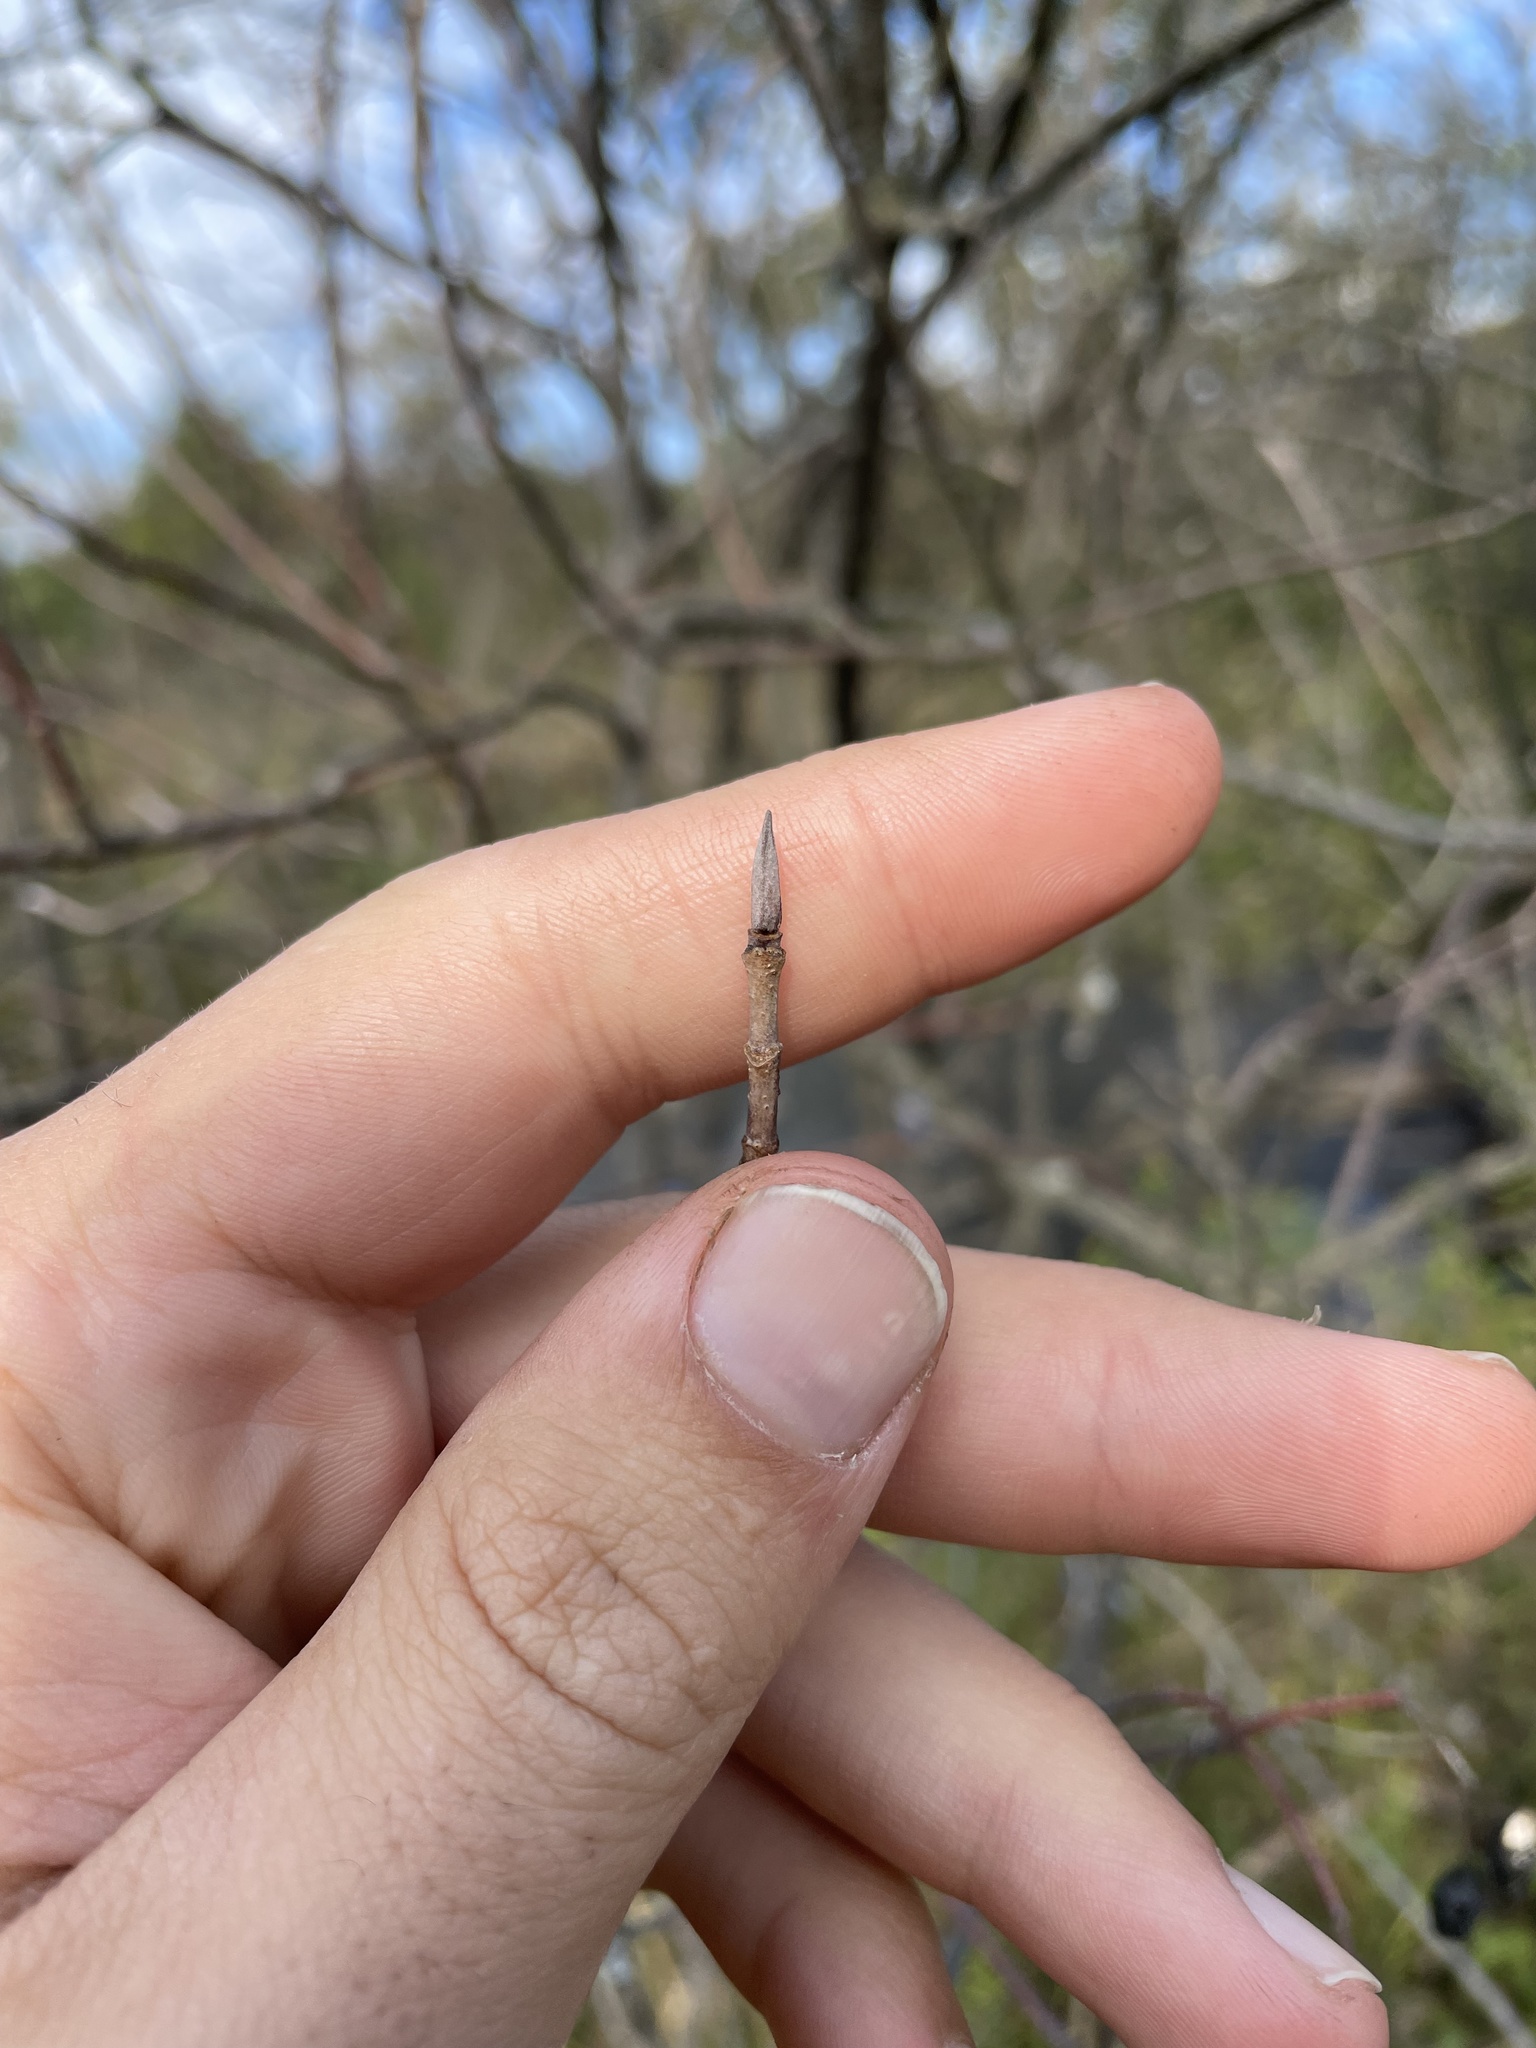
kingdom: Plantae
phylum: Tracheophyta
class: Magnoliopsida
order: Dipsacales
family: Viburnaceae
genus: Viburnum
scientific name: Viburnum lentago
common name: Black haw
